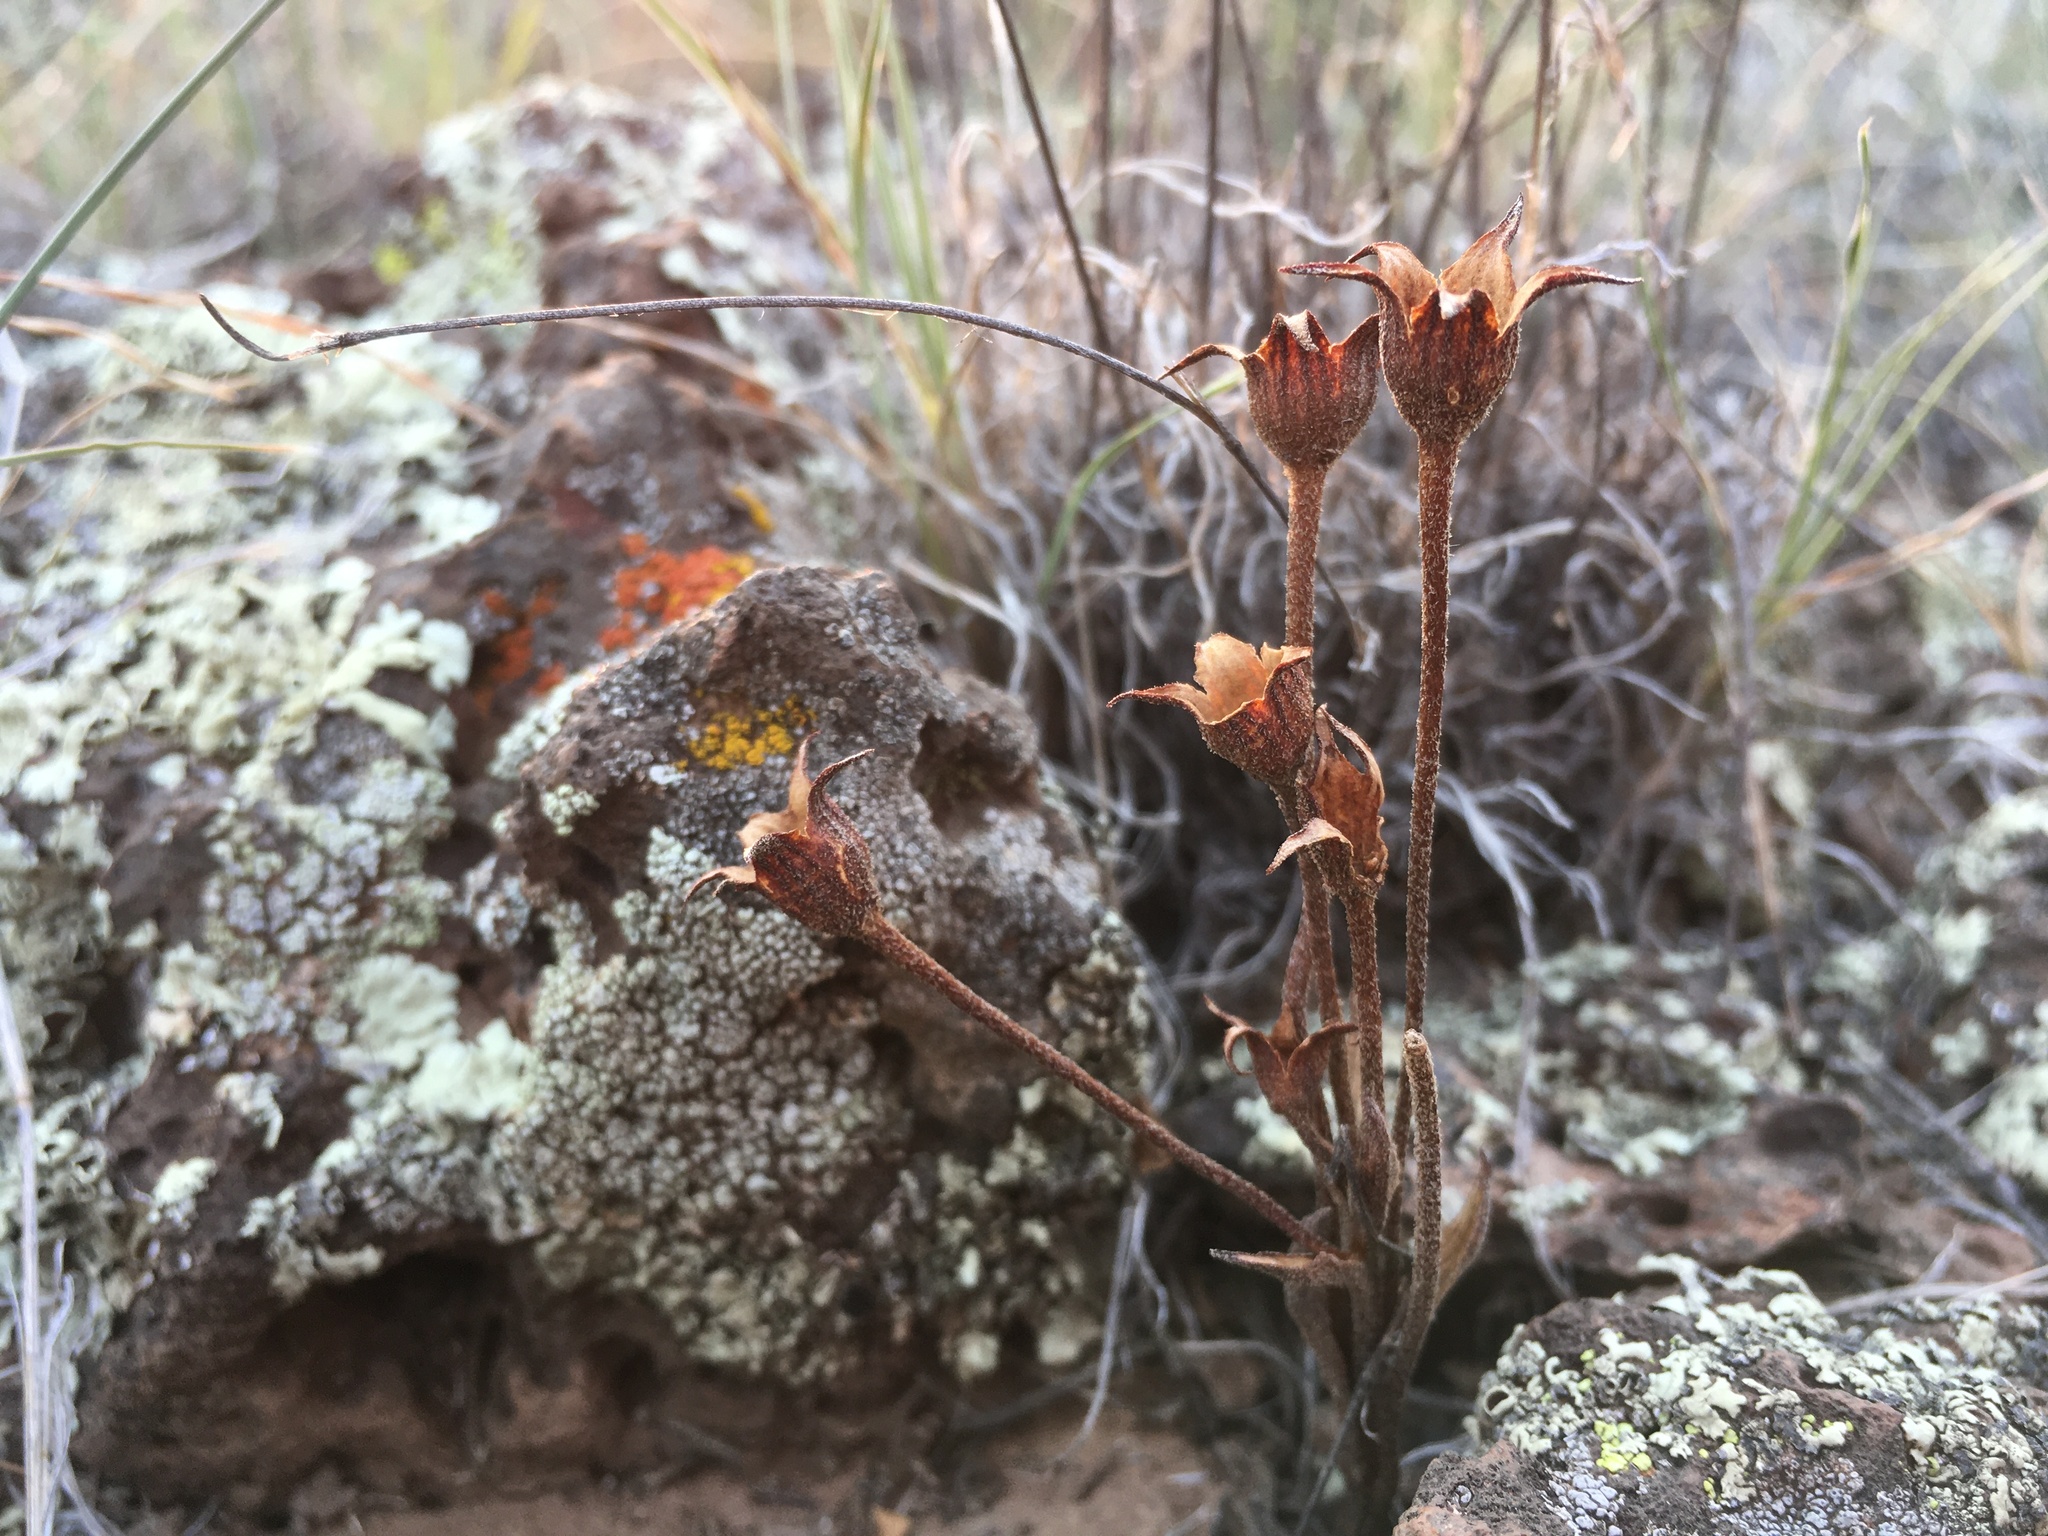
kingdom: Plantae
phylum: Tracheophyta
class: Magnoliopsida
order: Lamiales
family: Orobanchaceae
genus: Aphyllon
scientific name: Aphyllon fasciculatum
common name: Clustered broomrape
